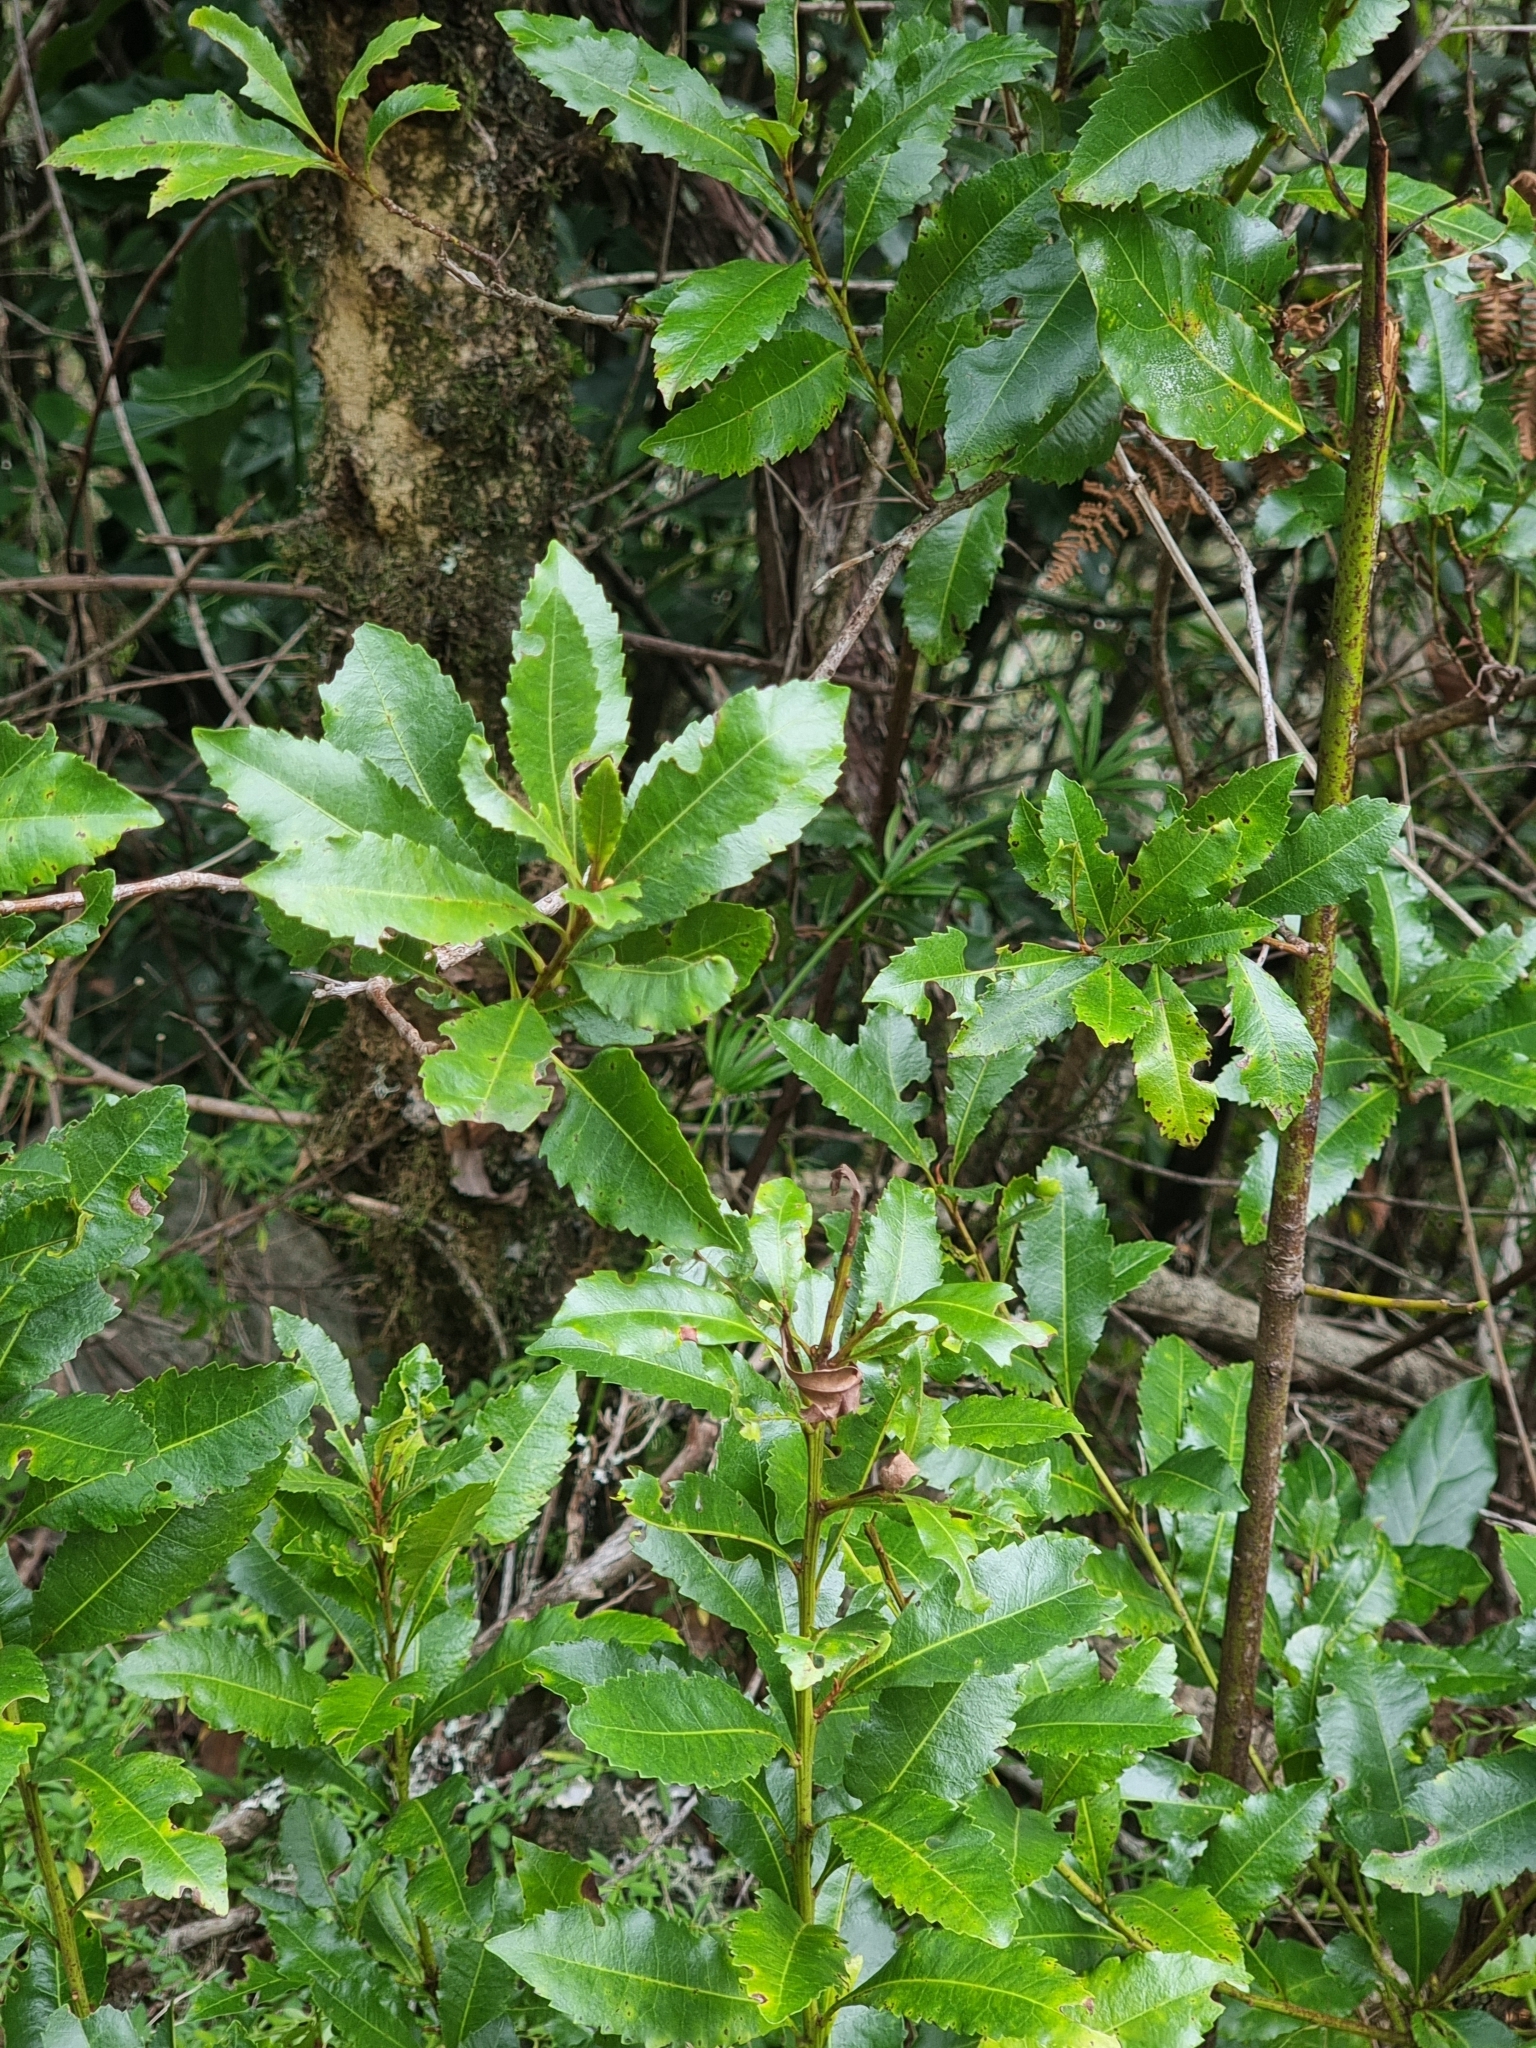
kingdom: Plantae
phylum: Tracheophyta
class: Magnoliopsida
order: Fagales
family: Myricaceae
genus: Morella
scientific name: Morella faya
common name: Firetree
